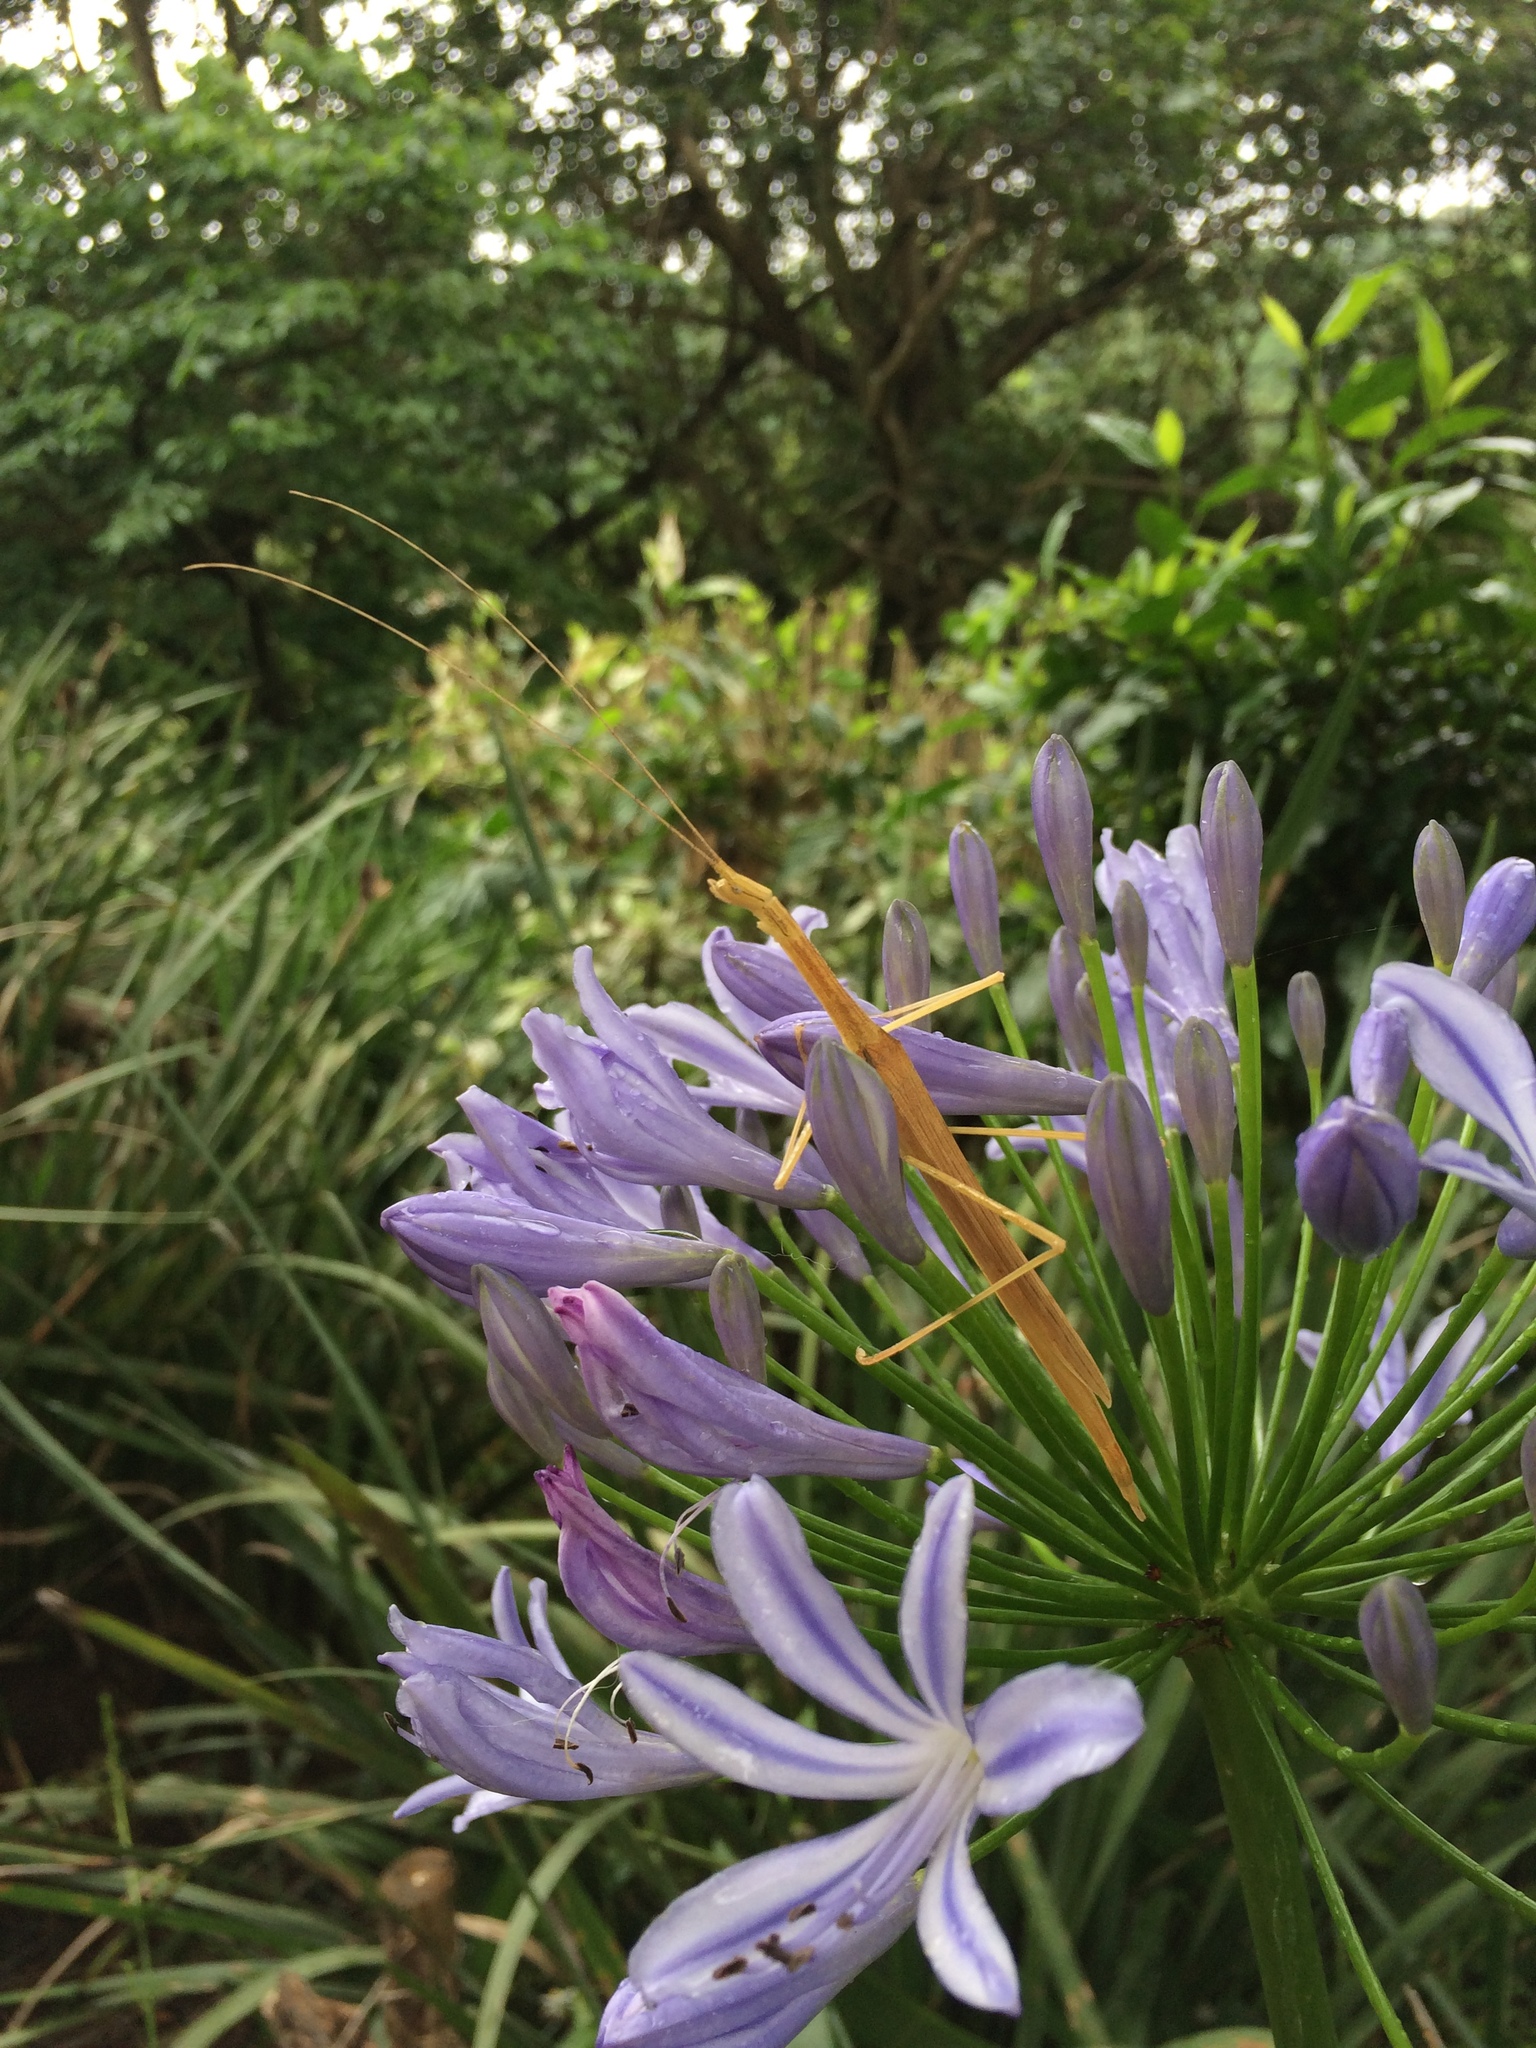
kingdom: Animalia
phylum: Arthropoda
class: Insecta
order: Phasmida
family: Lonchodidae
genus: Sipyloidea
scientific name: Sipyloidea sipylus
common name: Madagascan stick insect
